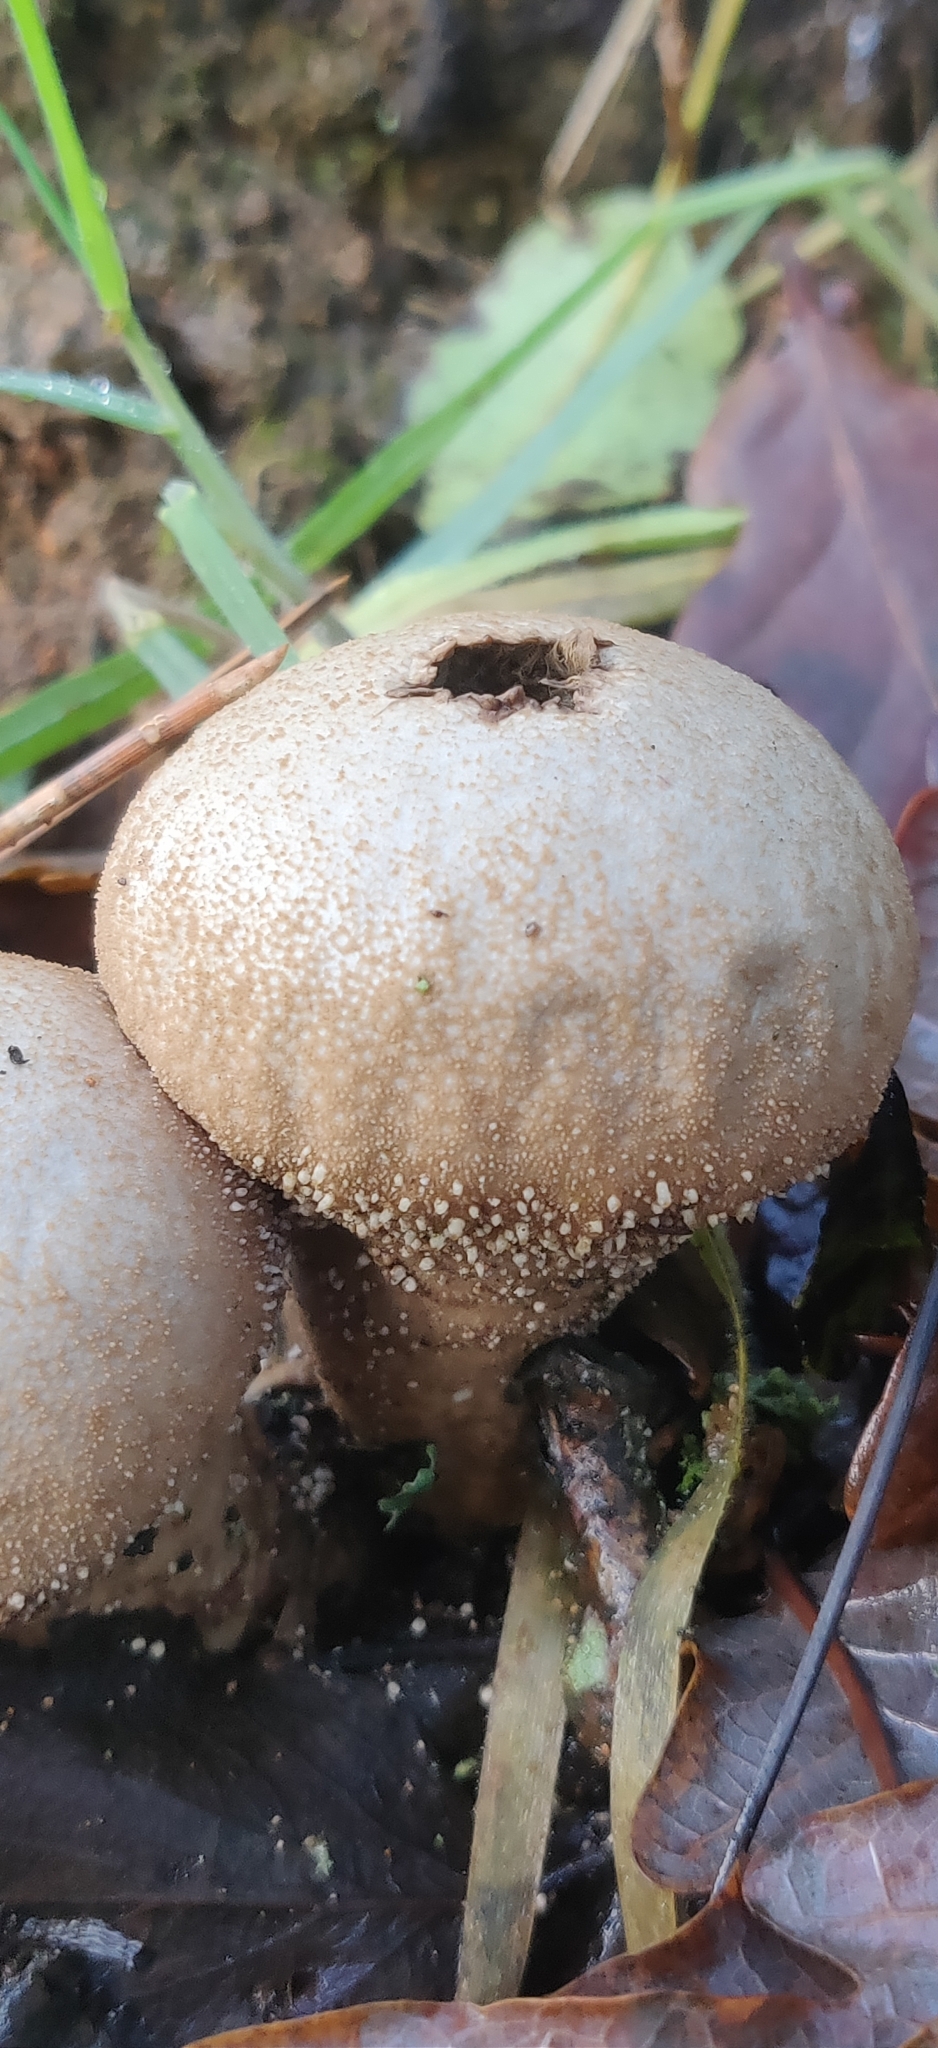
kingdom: Fungi
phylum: Basidiomycota
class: Agaricomycetes
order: Agaricales
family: Lycoperdaceae
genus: Lycoperdon
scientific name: Lycoperdon perlatum
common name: Common puffball
